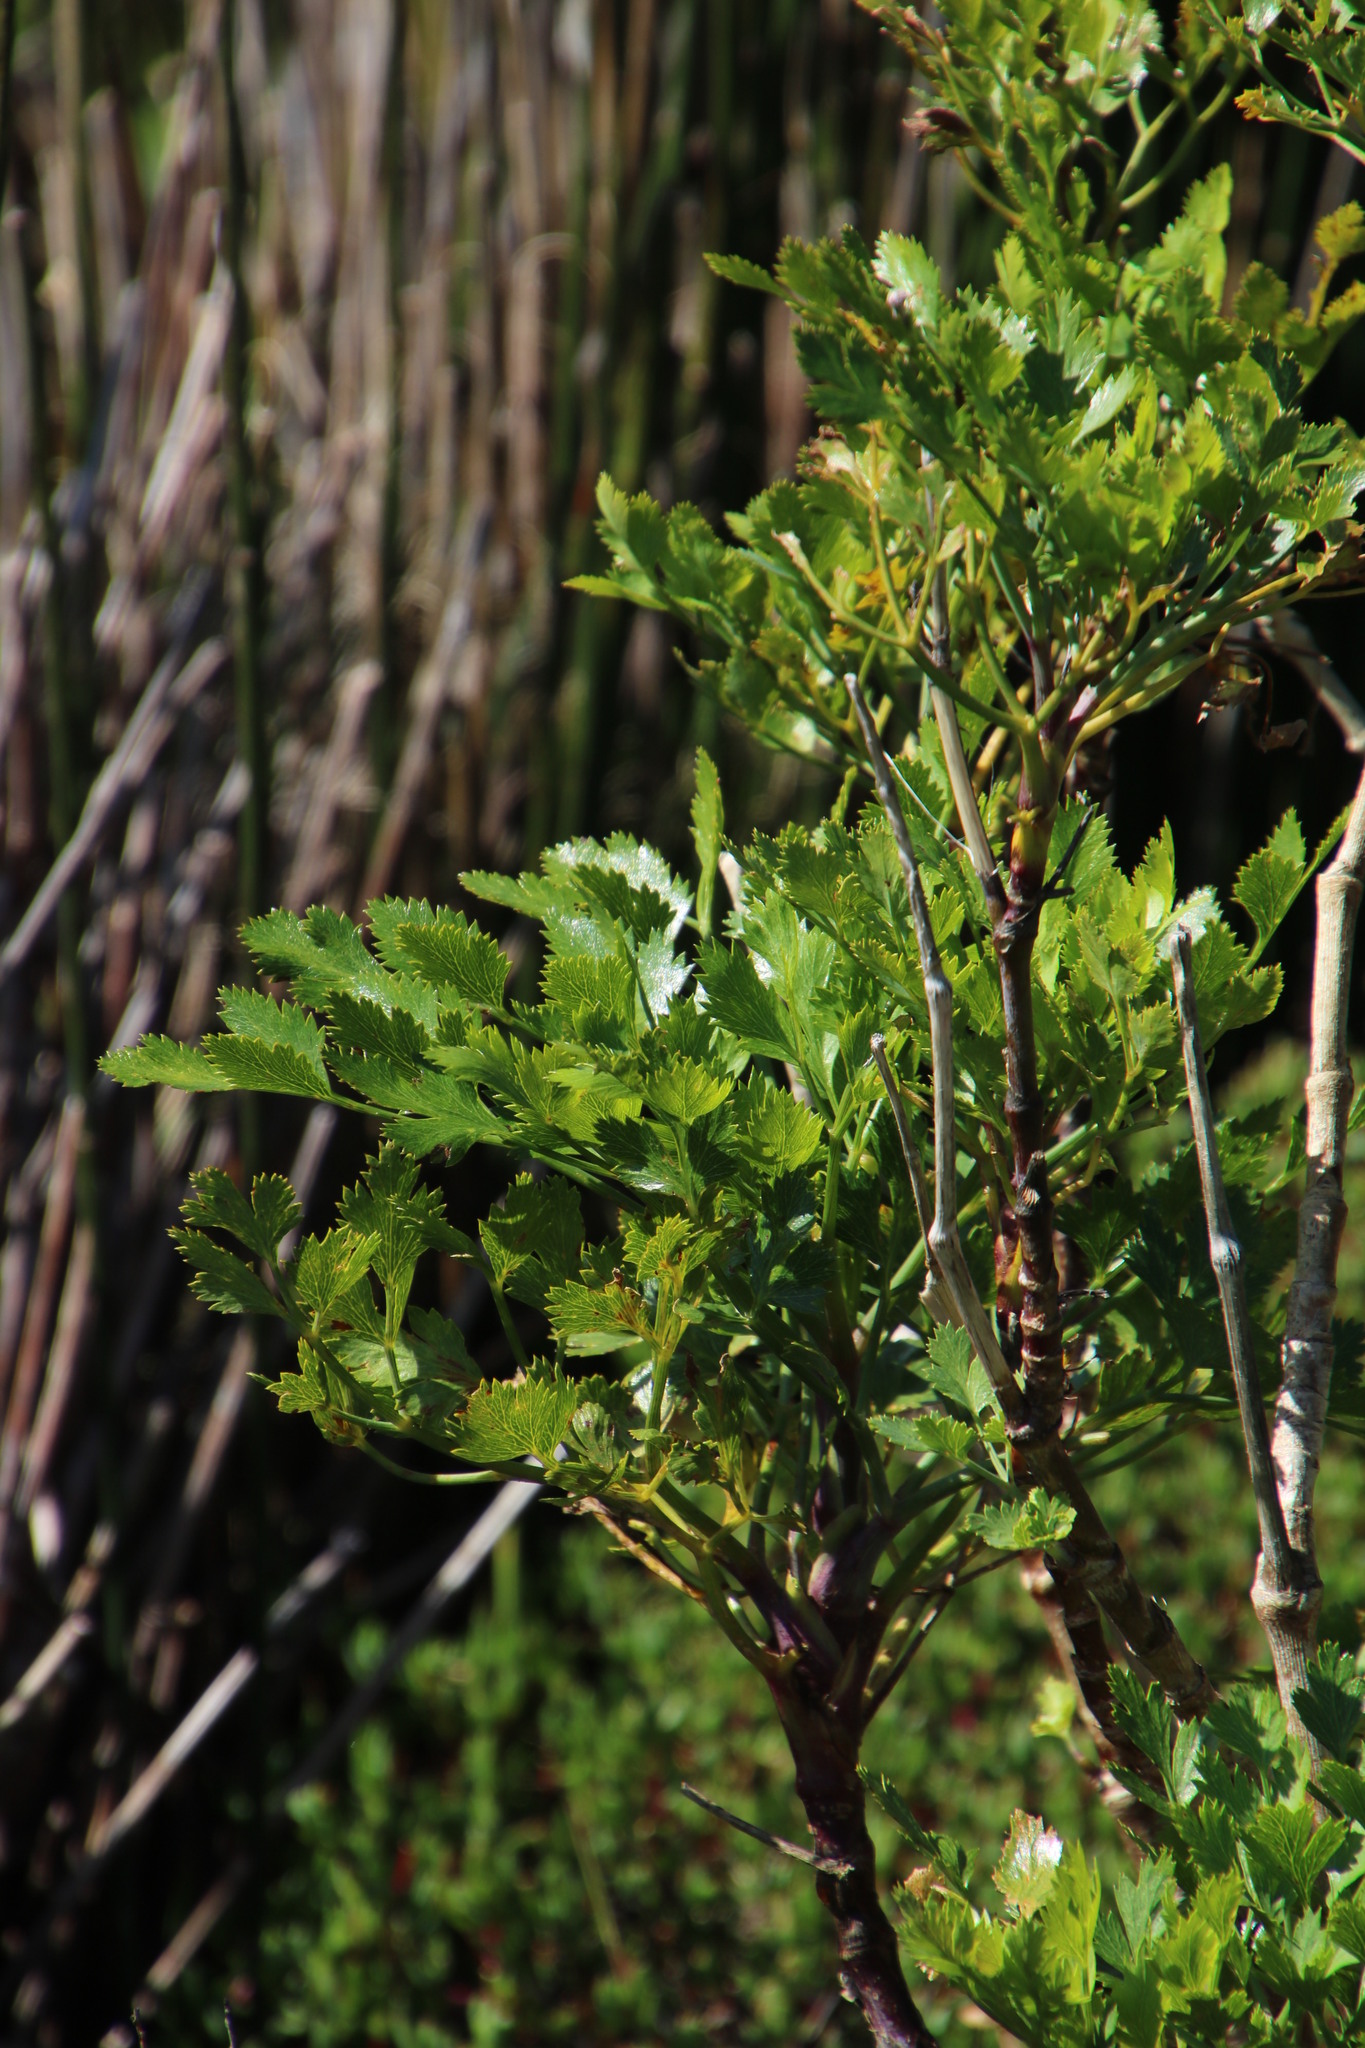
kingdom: Plantae
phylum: Tracheophyta
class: Magnoliopsida
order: Apiales
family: Apiaceae
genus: Notobubon
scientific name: Notobubon galbanum
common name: Blisterbush
